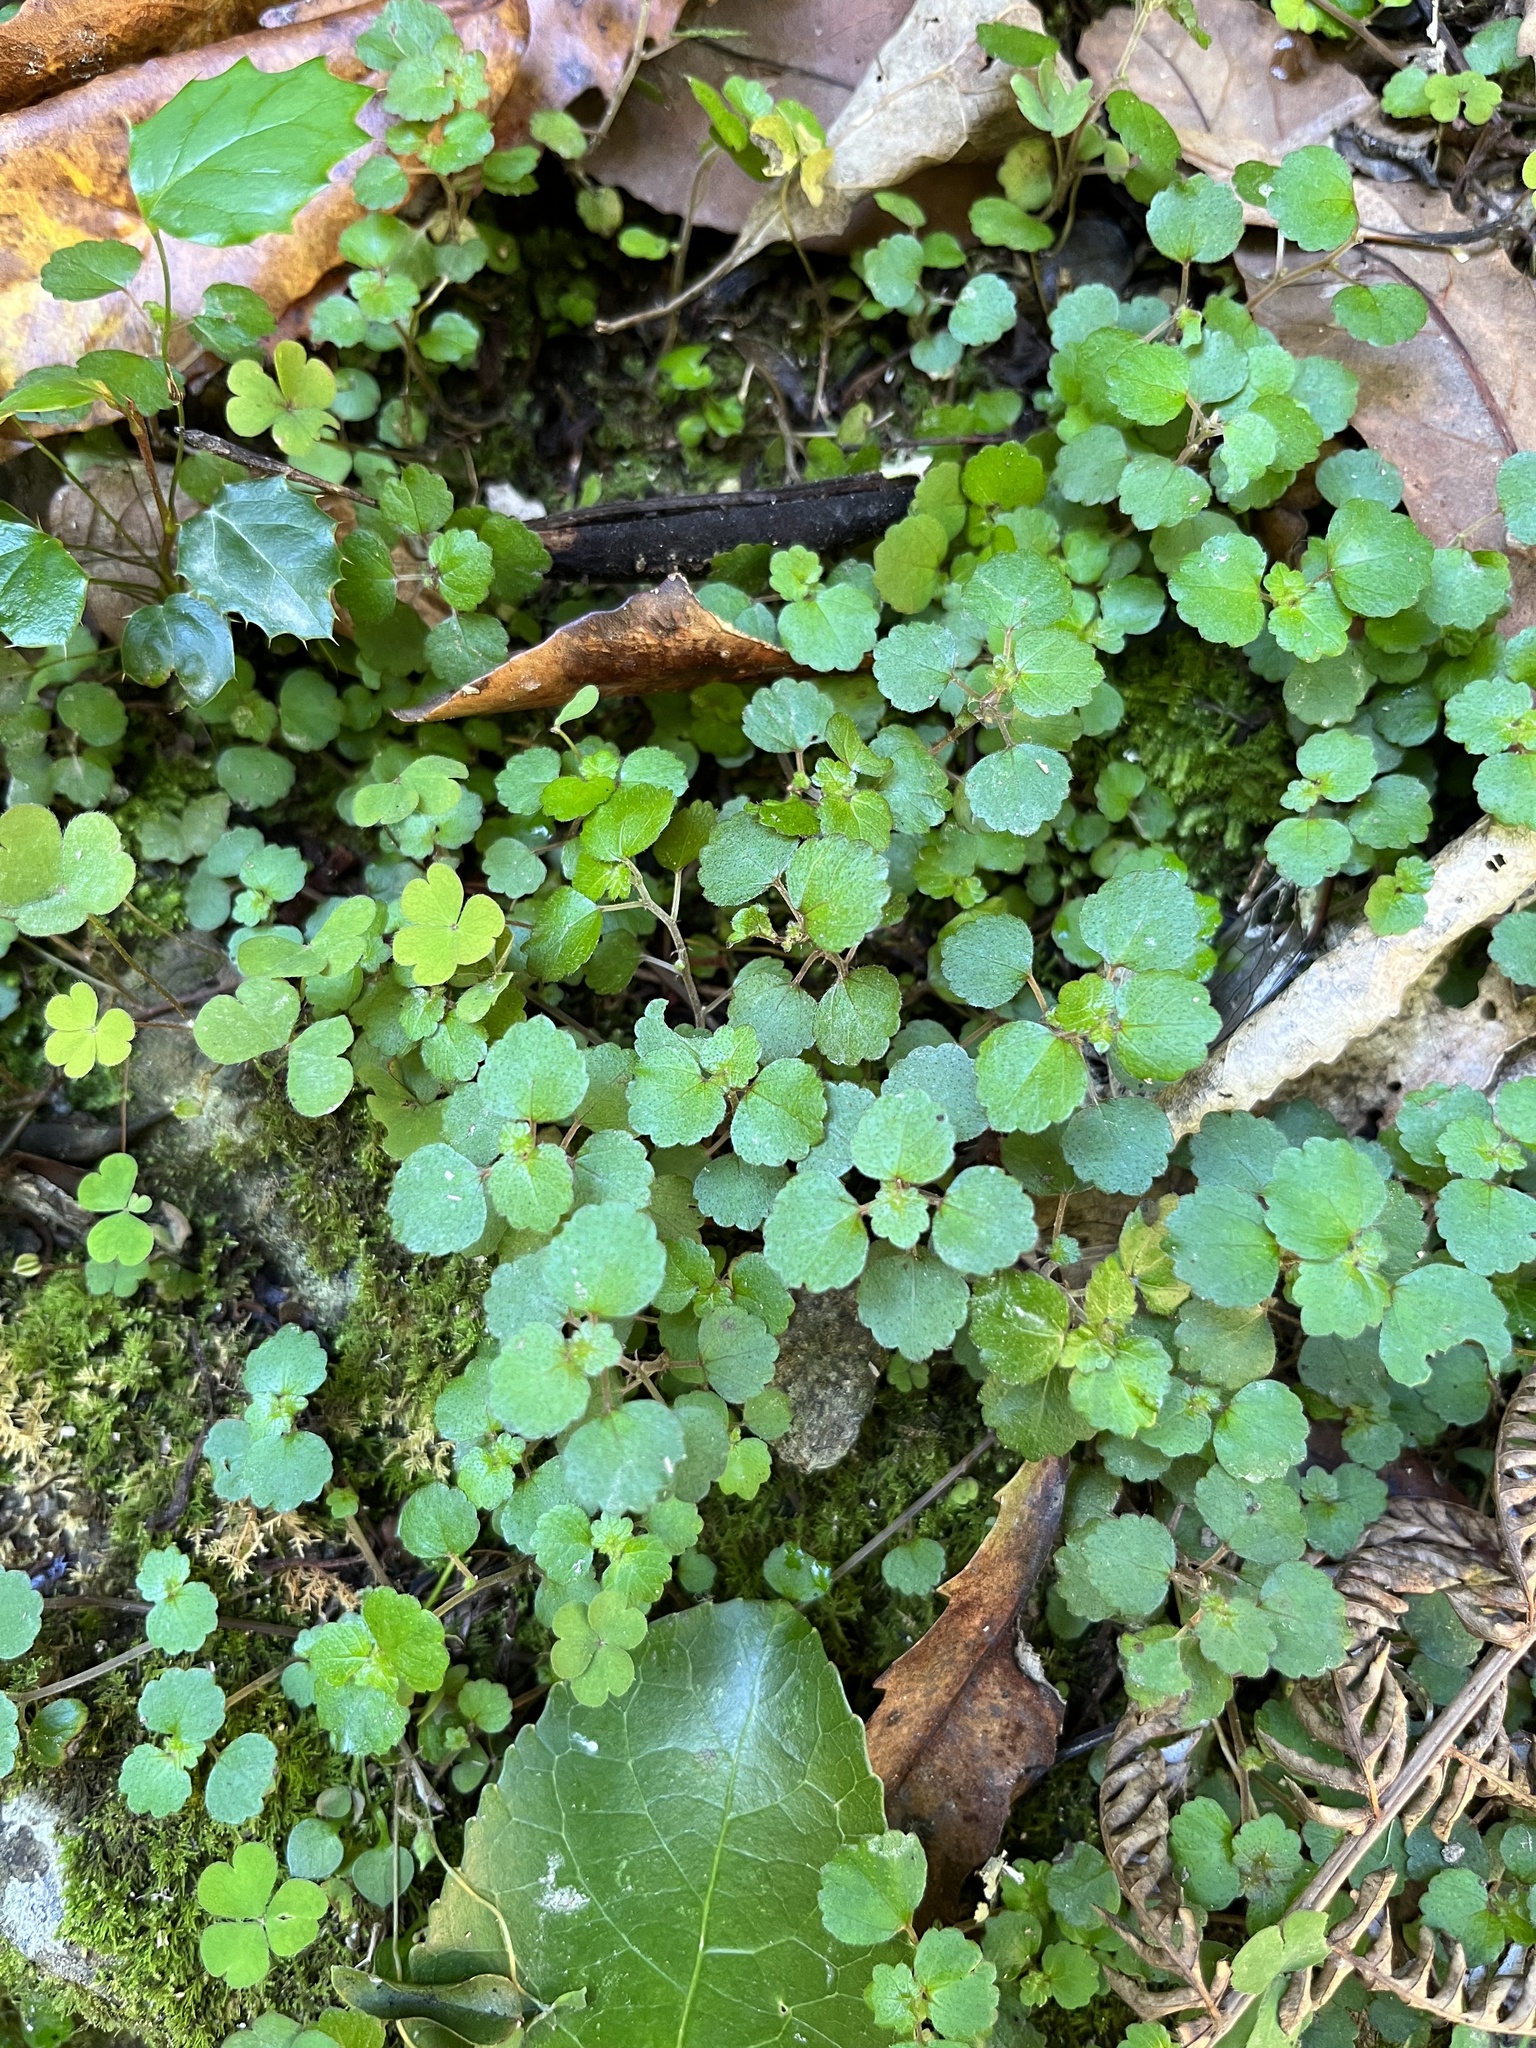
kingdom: Plantae
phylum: Tracheophyta
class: Magnoliopsida
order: Rosales
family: Urticaceae
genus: Australina
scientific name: Australina pusilla
